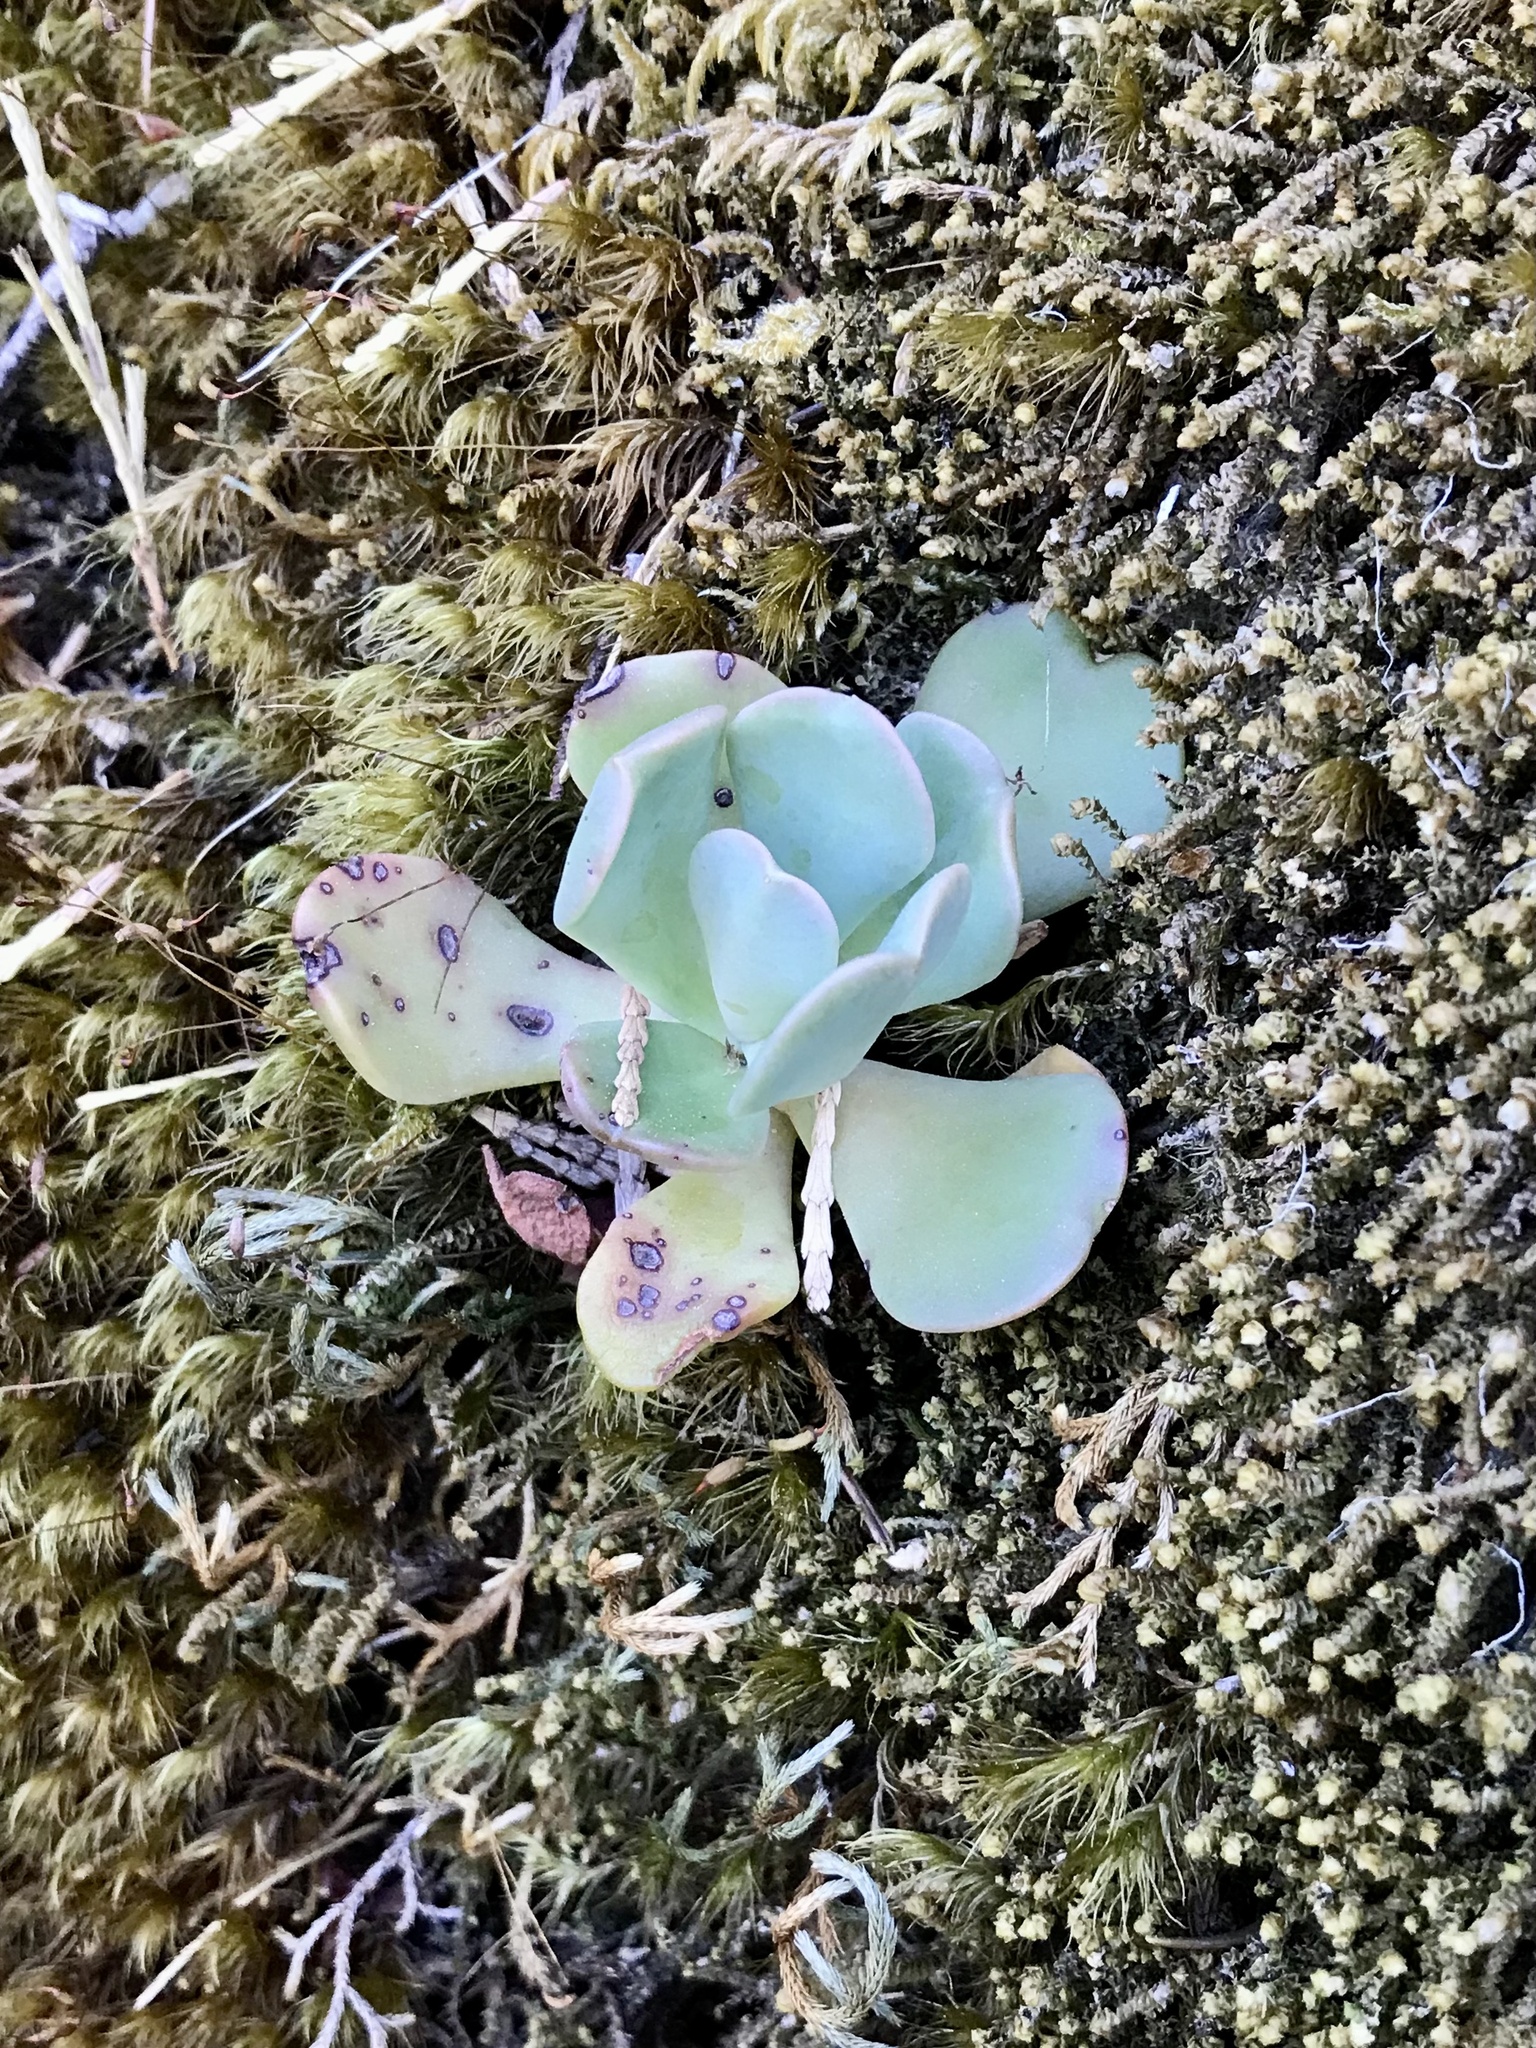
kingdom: Plantae
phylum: Tracheophyta
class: Magnoliopsida
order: Saxifragales
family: Crassulaceae
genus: Sedum
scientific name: Sedum
